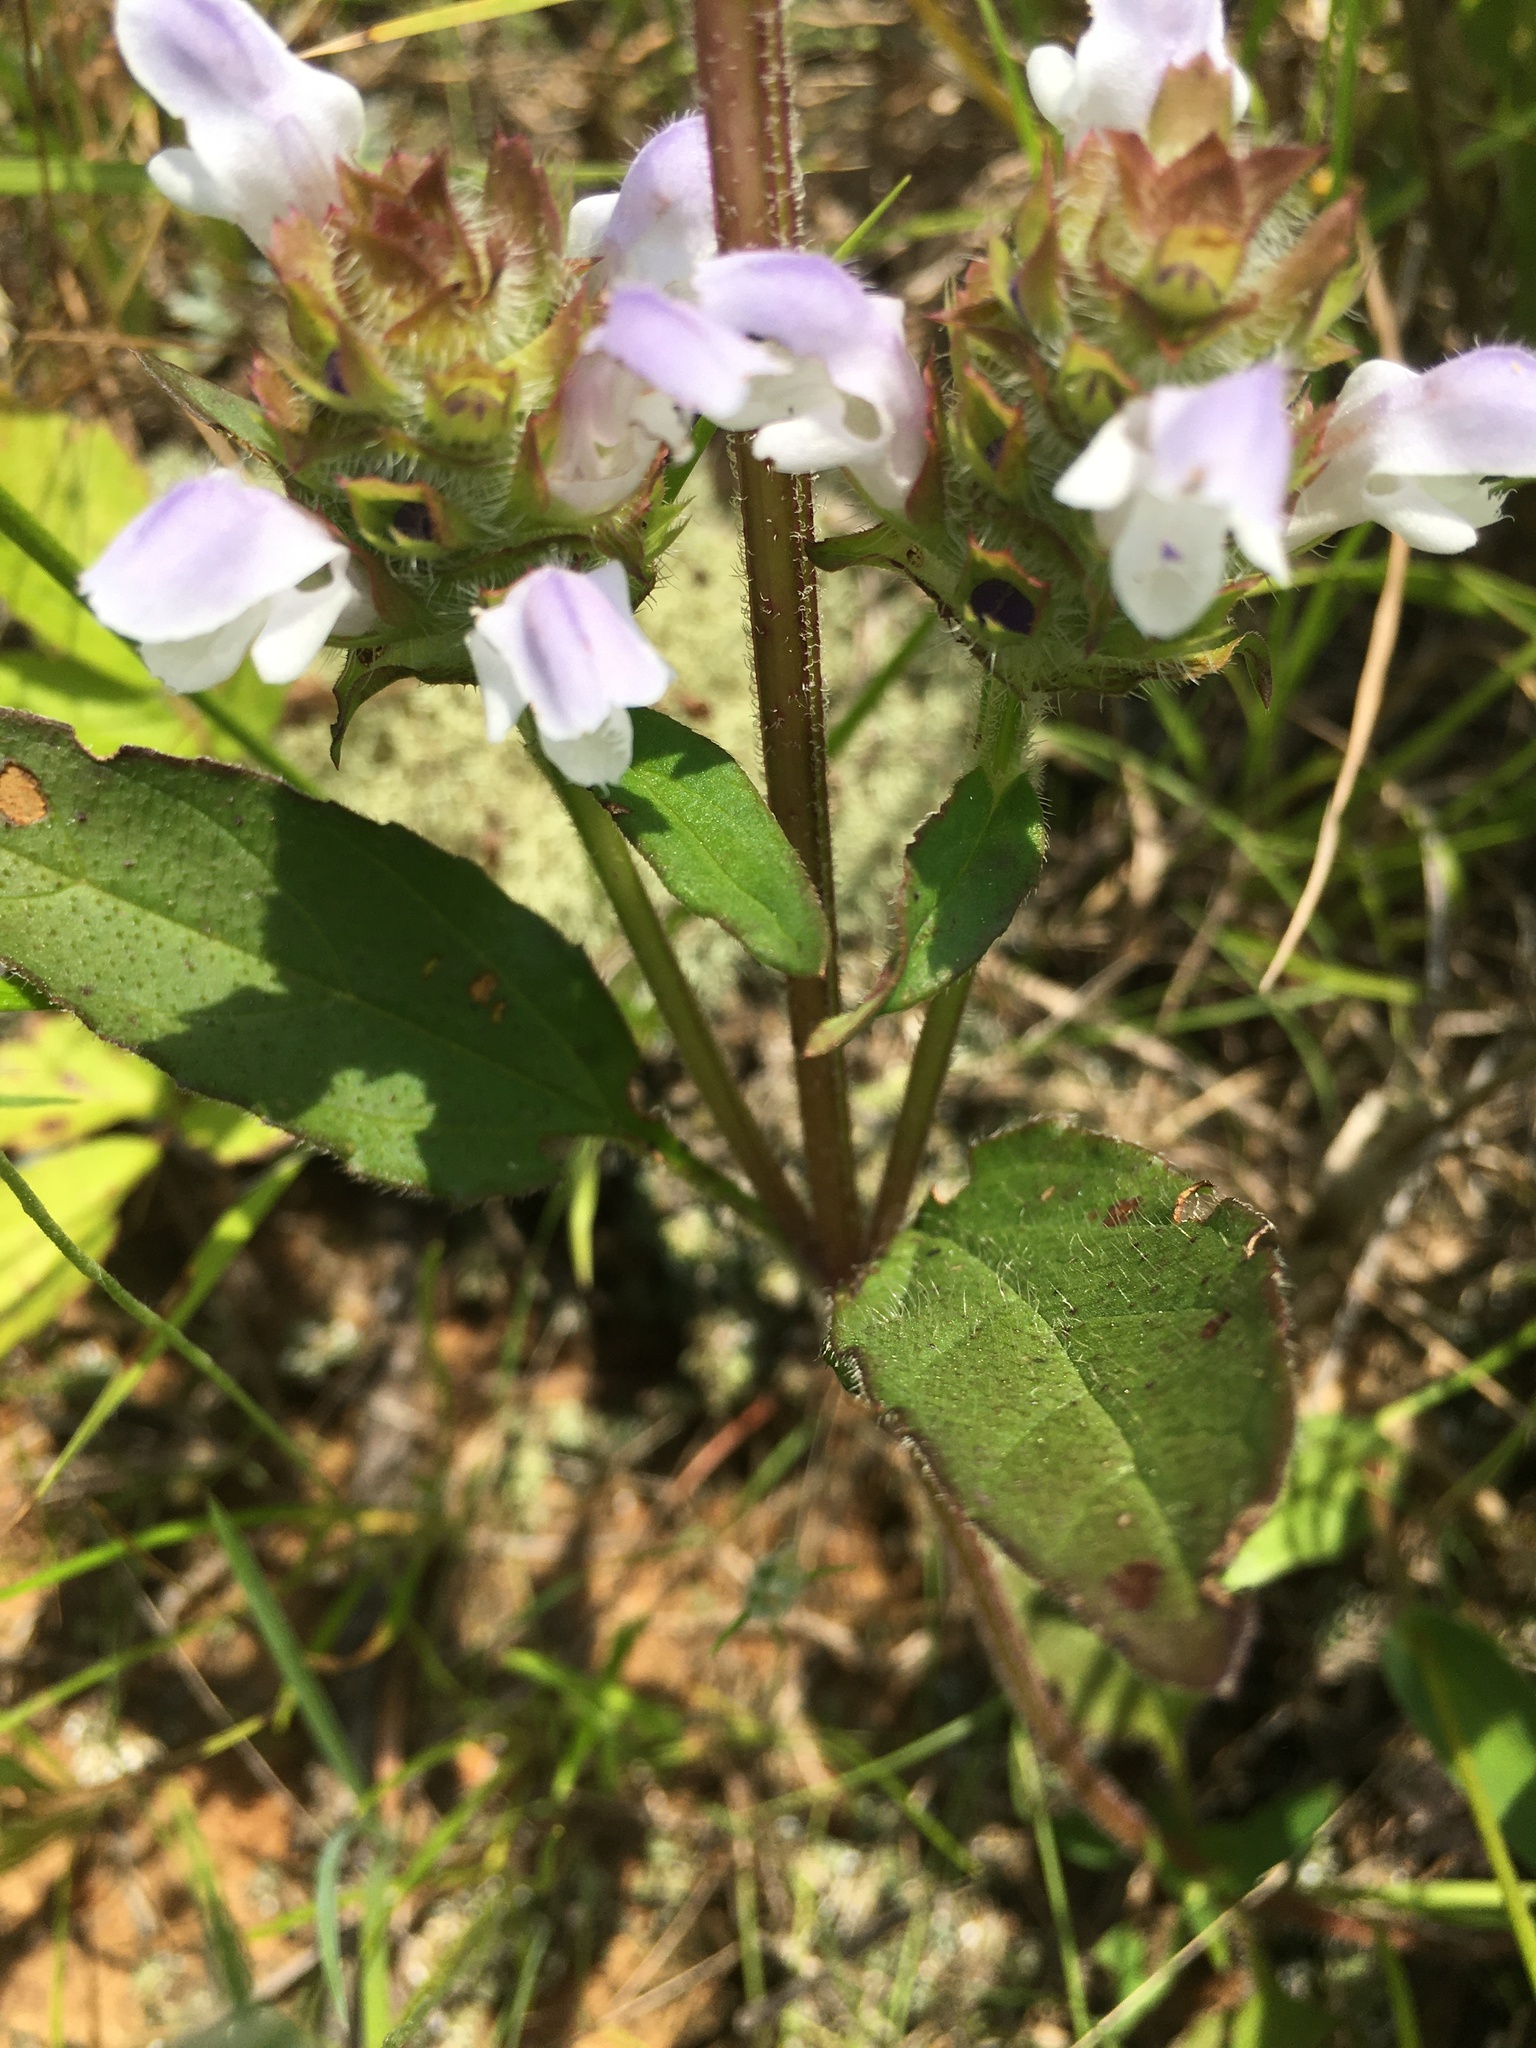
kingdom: Plantae
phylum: Tracheophyta
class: Magnoliopsida
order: Lamiales
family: Lamiaceae
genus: Prunella
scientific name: Prunella vulgaris
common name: Heal-all
